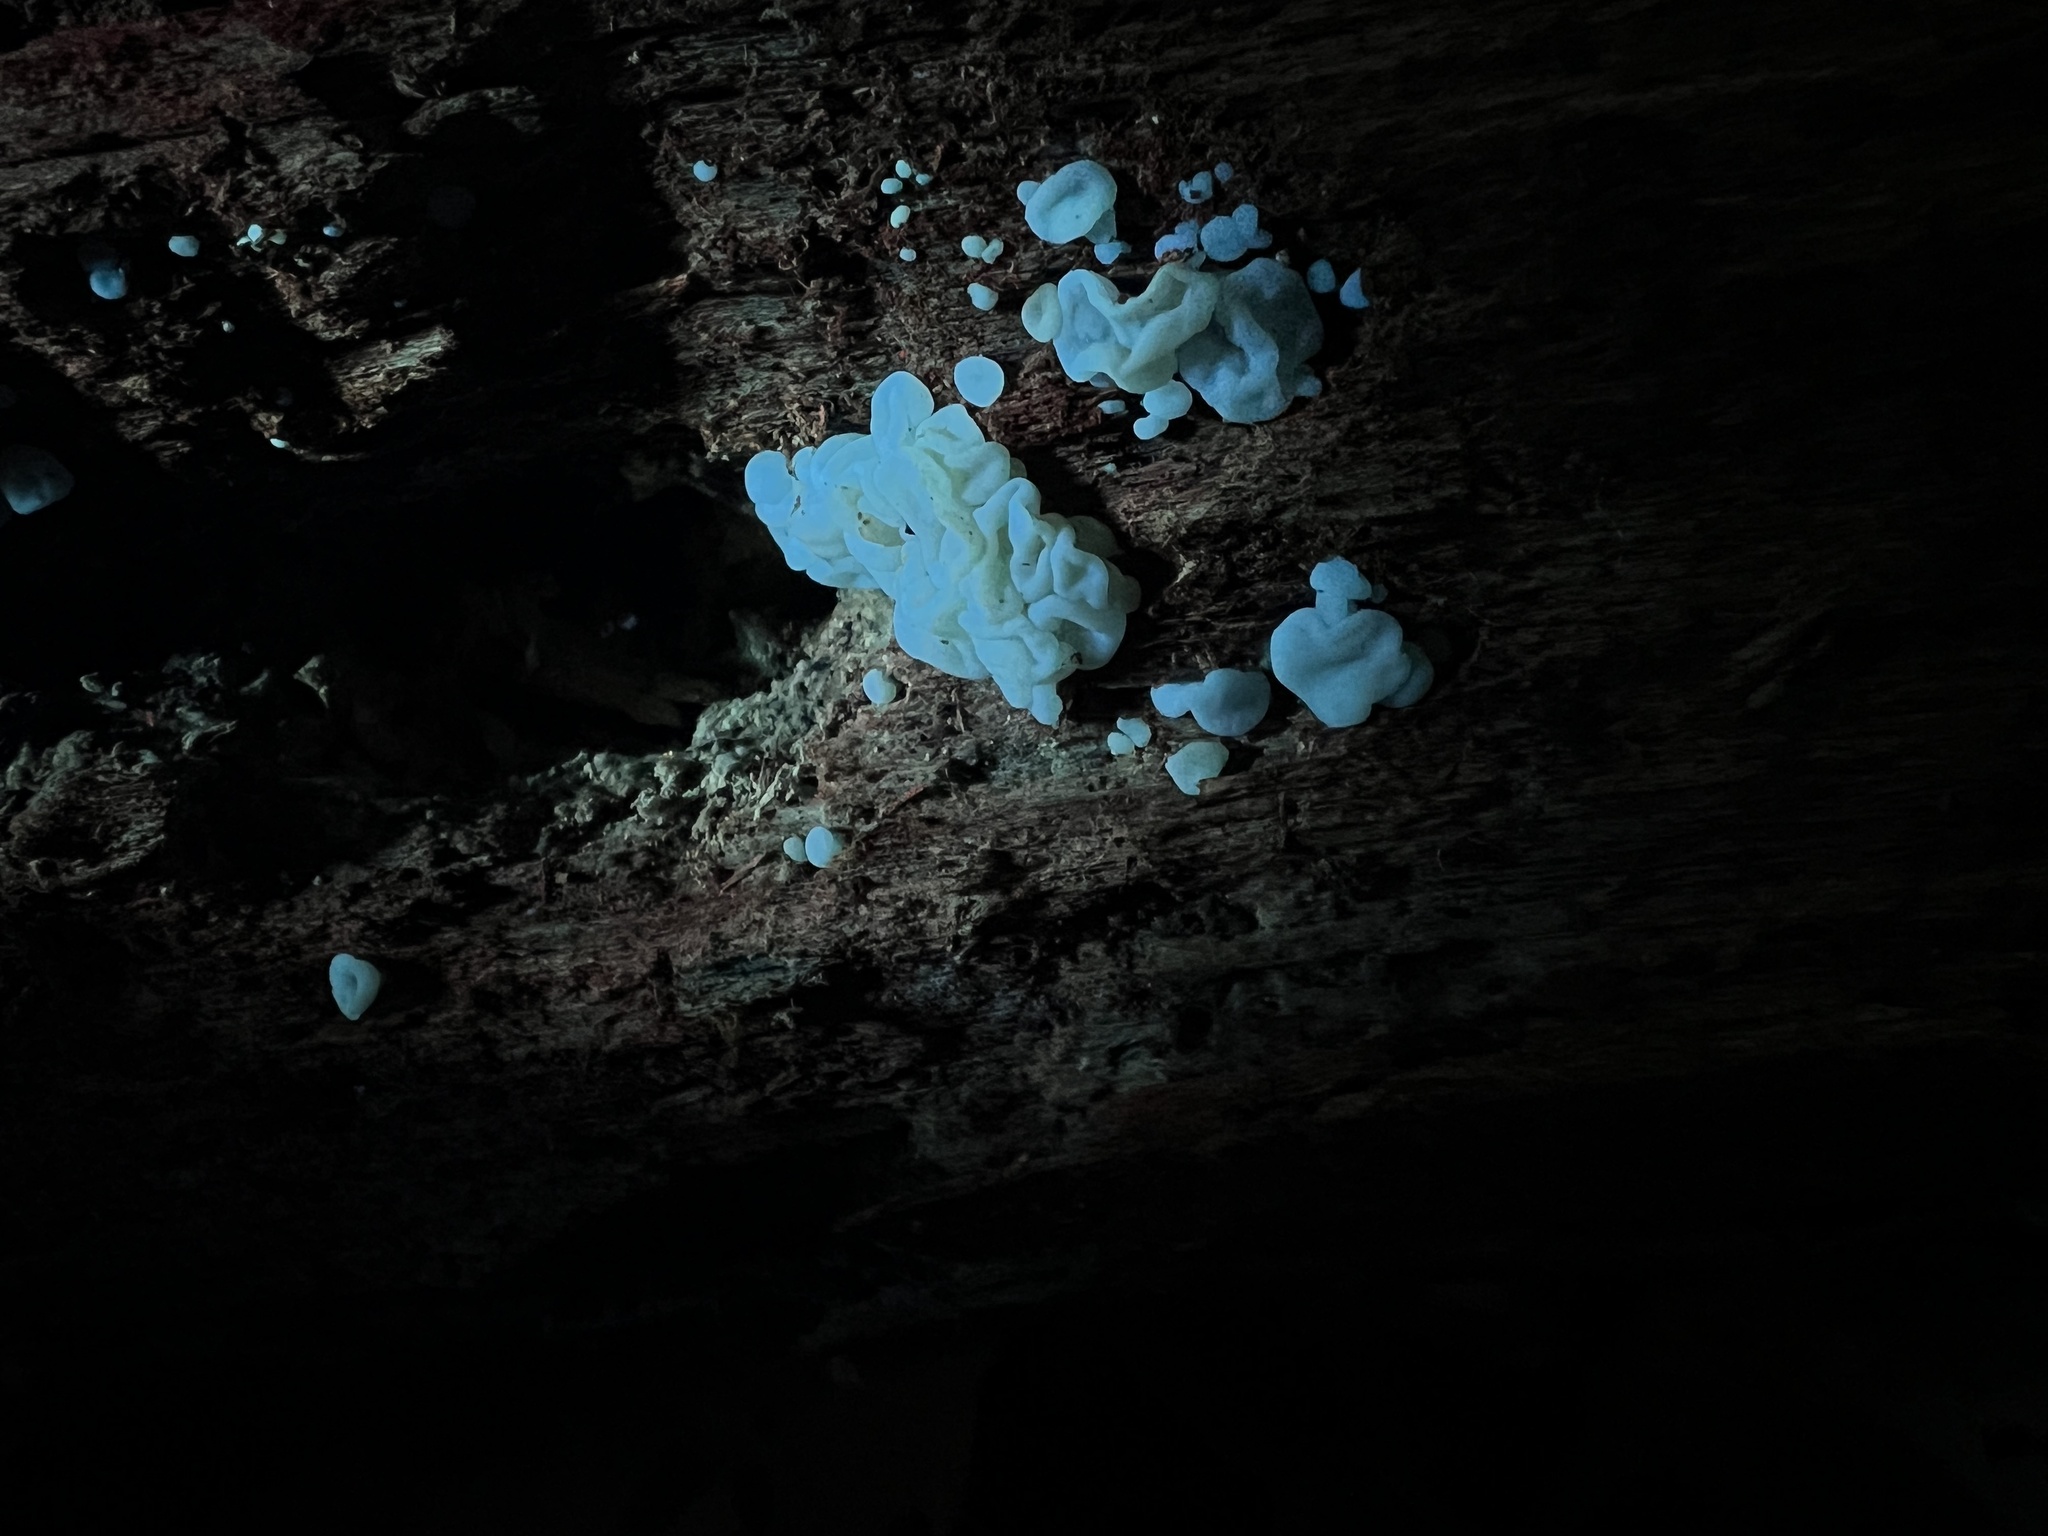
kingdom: Fungi
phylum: Basidiomycota
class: Agaricomycetes
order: Auriculariales
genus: Ductifera
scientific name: Ductifera pululahuana
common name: White jelly fungus
